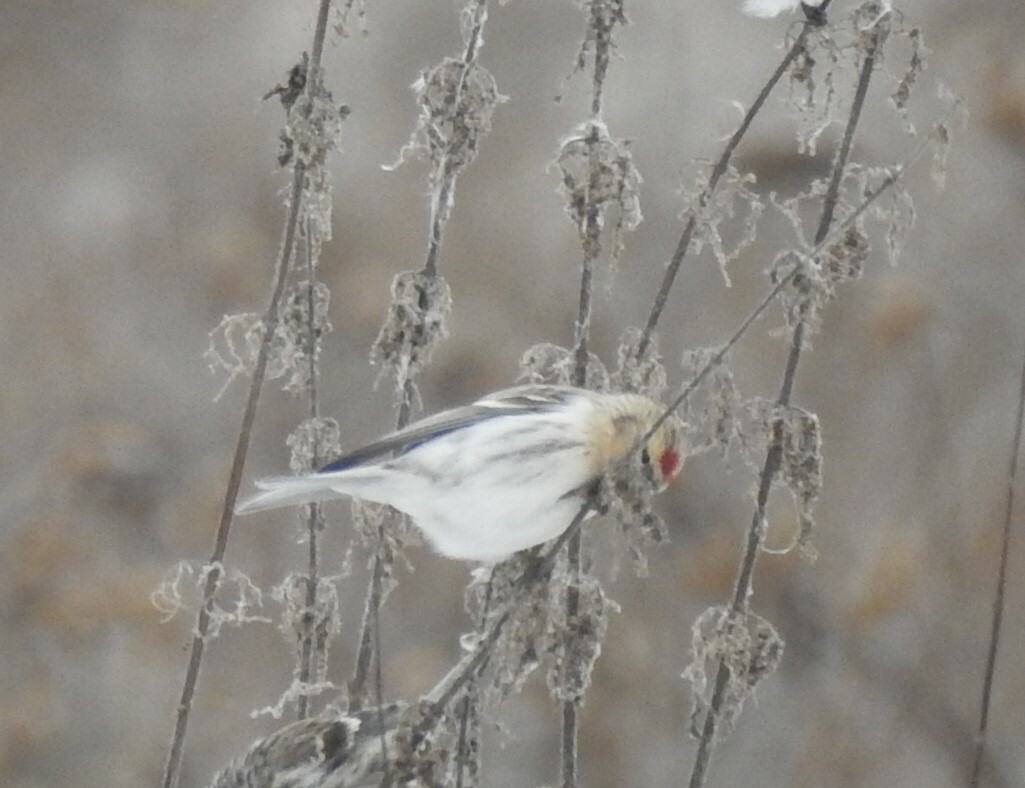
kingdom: Animalia
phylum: Chordata
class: Aves
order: Passeriformes
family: Fringillidae
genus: Acanthis
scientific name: Acanthis hornemanni
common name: Arctic redpoll
